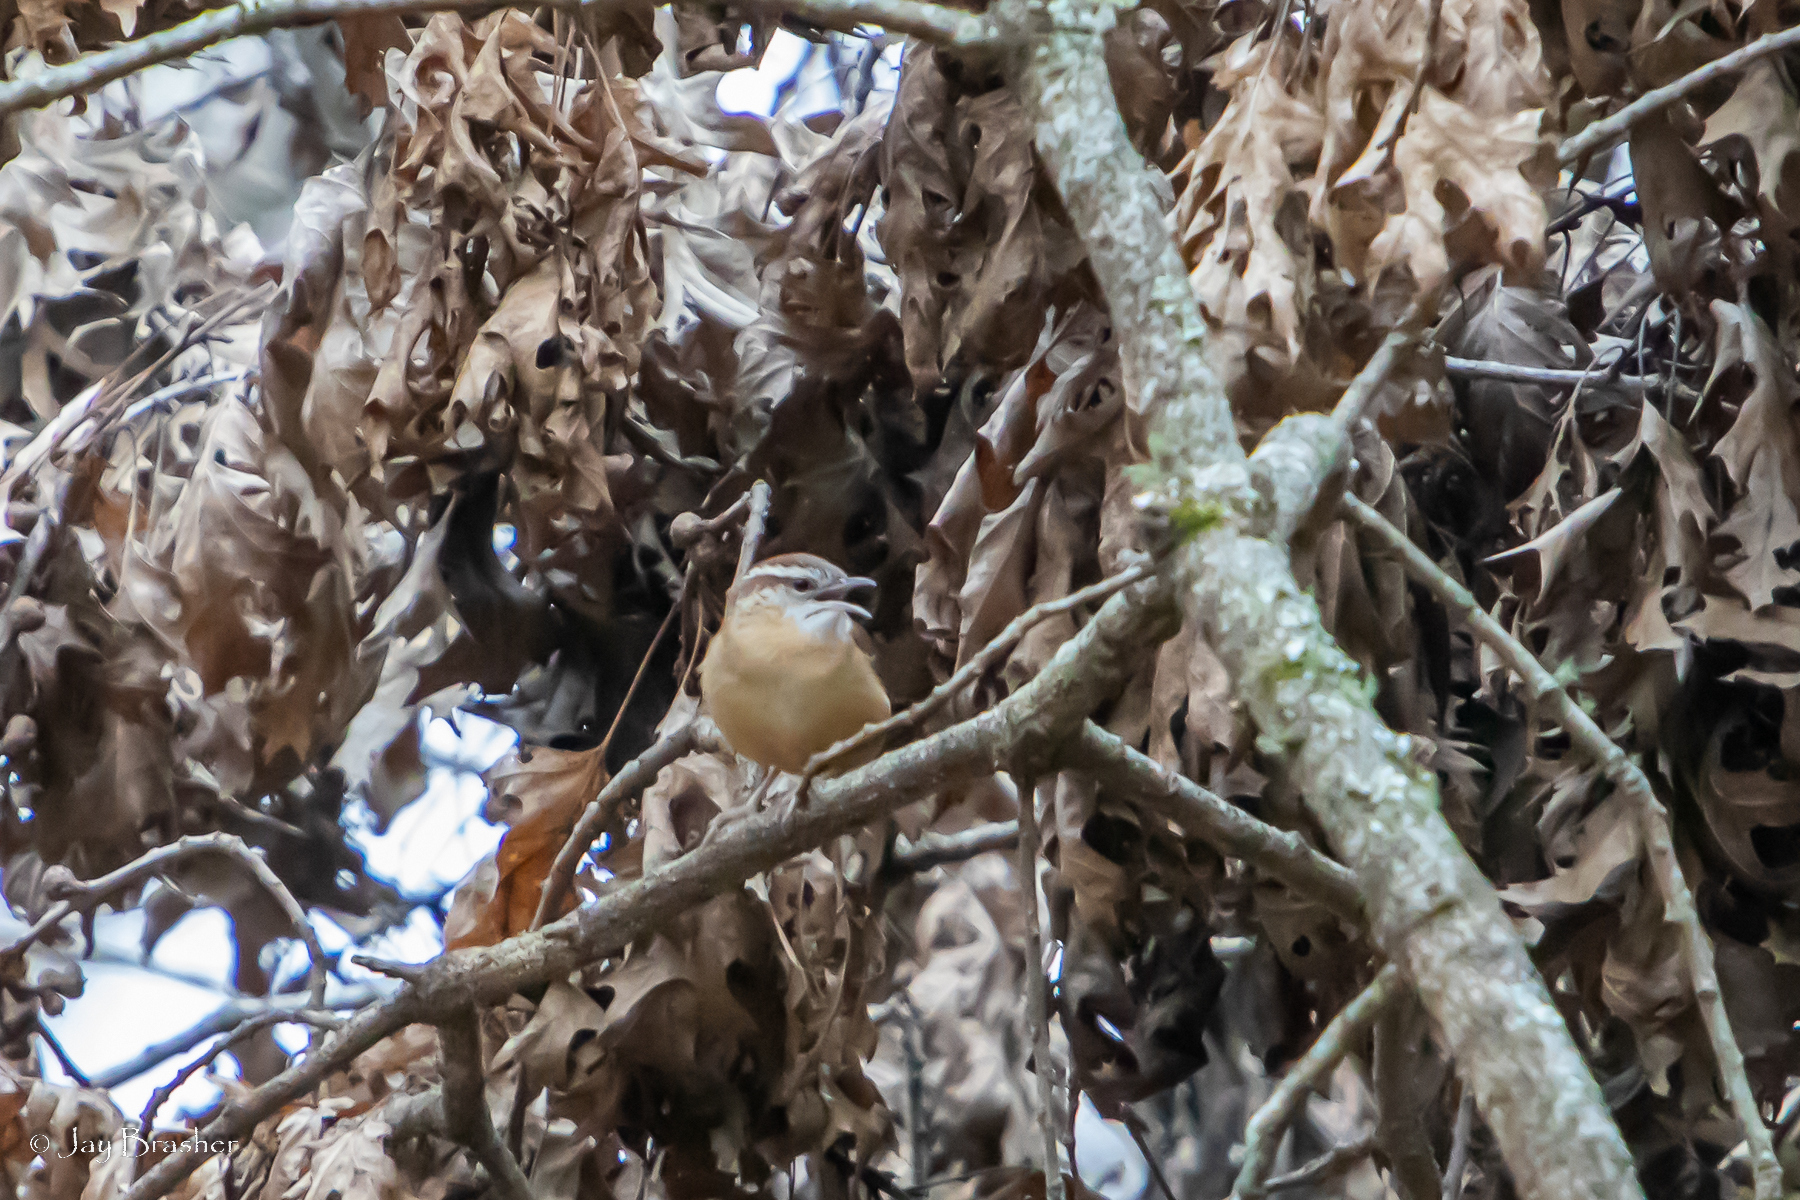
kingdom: Animalia
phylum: Chordata
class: Aves
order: Passeriformes
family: Troglodytidae
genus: Thryothorus
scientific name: Thryothorus ludovicianus
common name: Carolina wren
